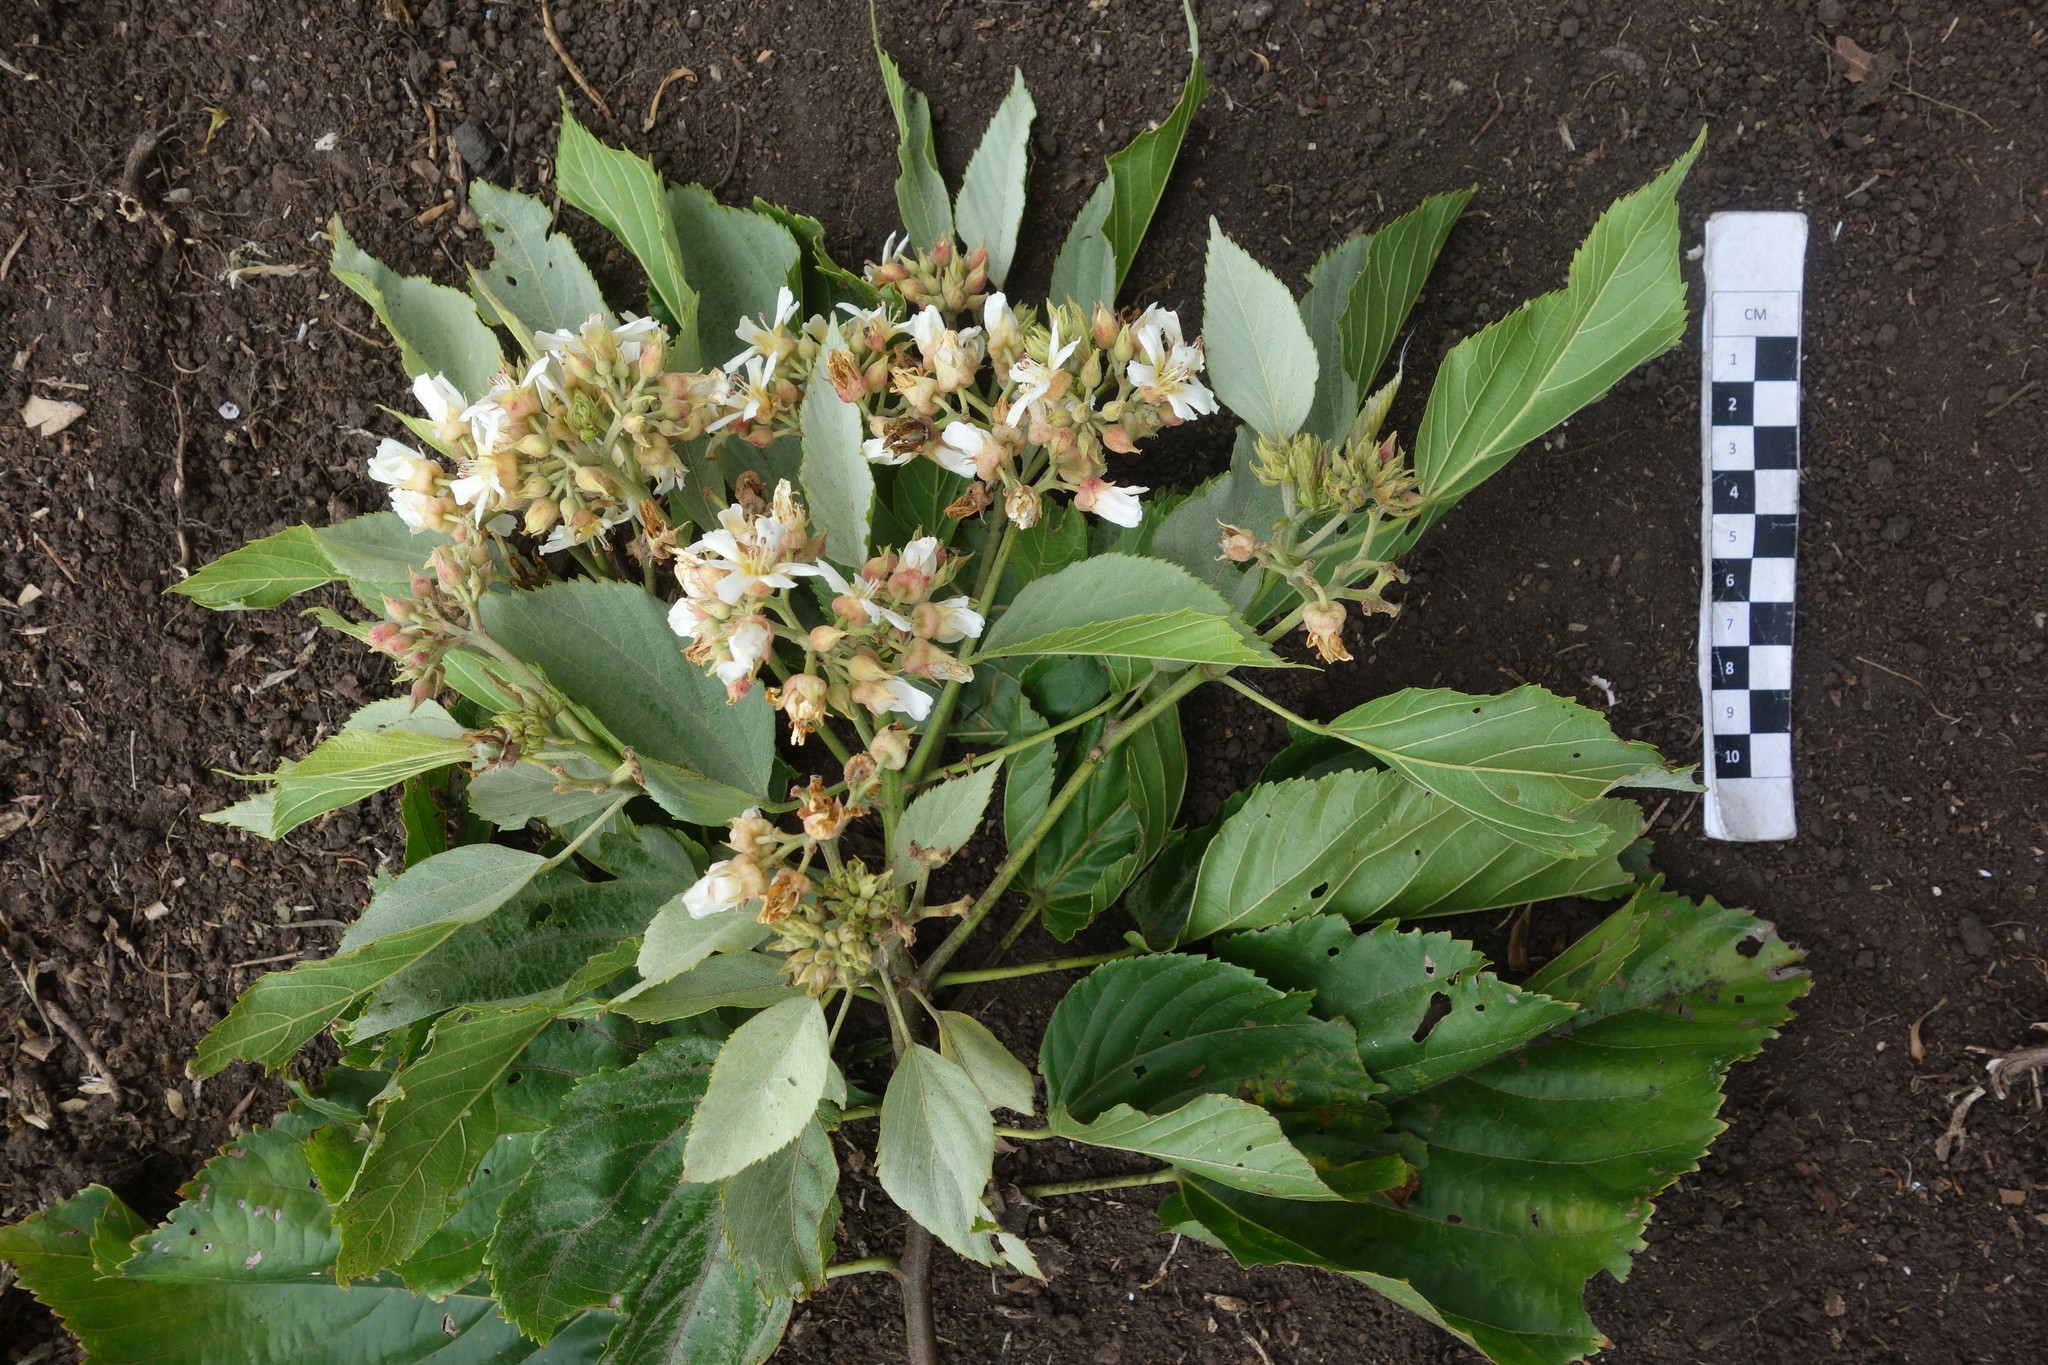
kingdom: Plantae
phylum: Tracheophyta
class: Magnoliopsida
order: Malvales
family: Malvaceae
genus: Melochia
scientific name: Melochia odorata
